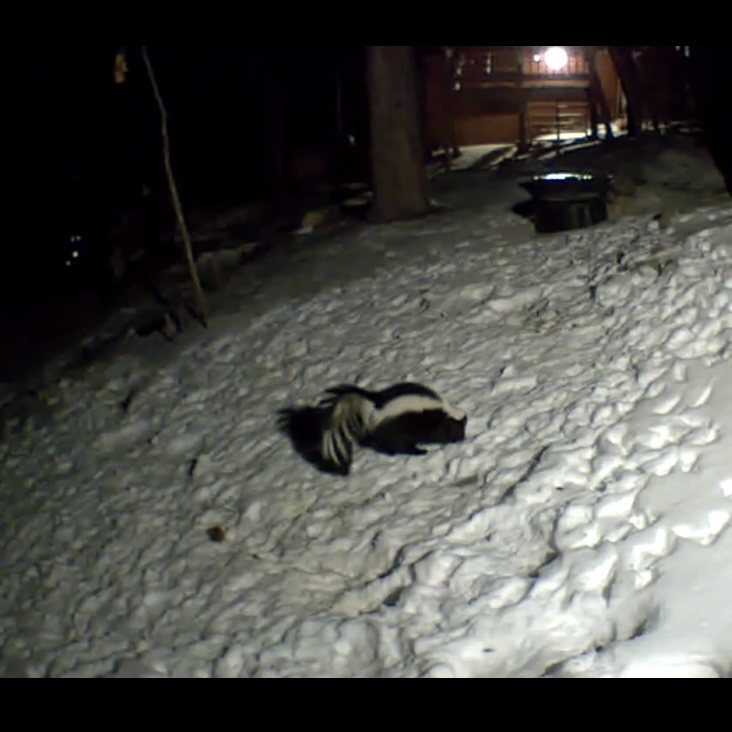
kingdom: Animalia
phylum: Chordata
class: Mammalia
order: Carnivora
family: Mephitidae
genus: Mephitis
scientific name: Mephitis mephitis
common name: Striped skunk
